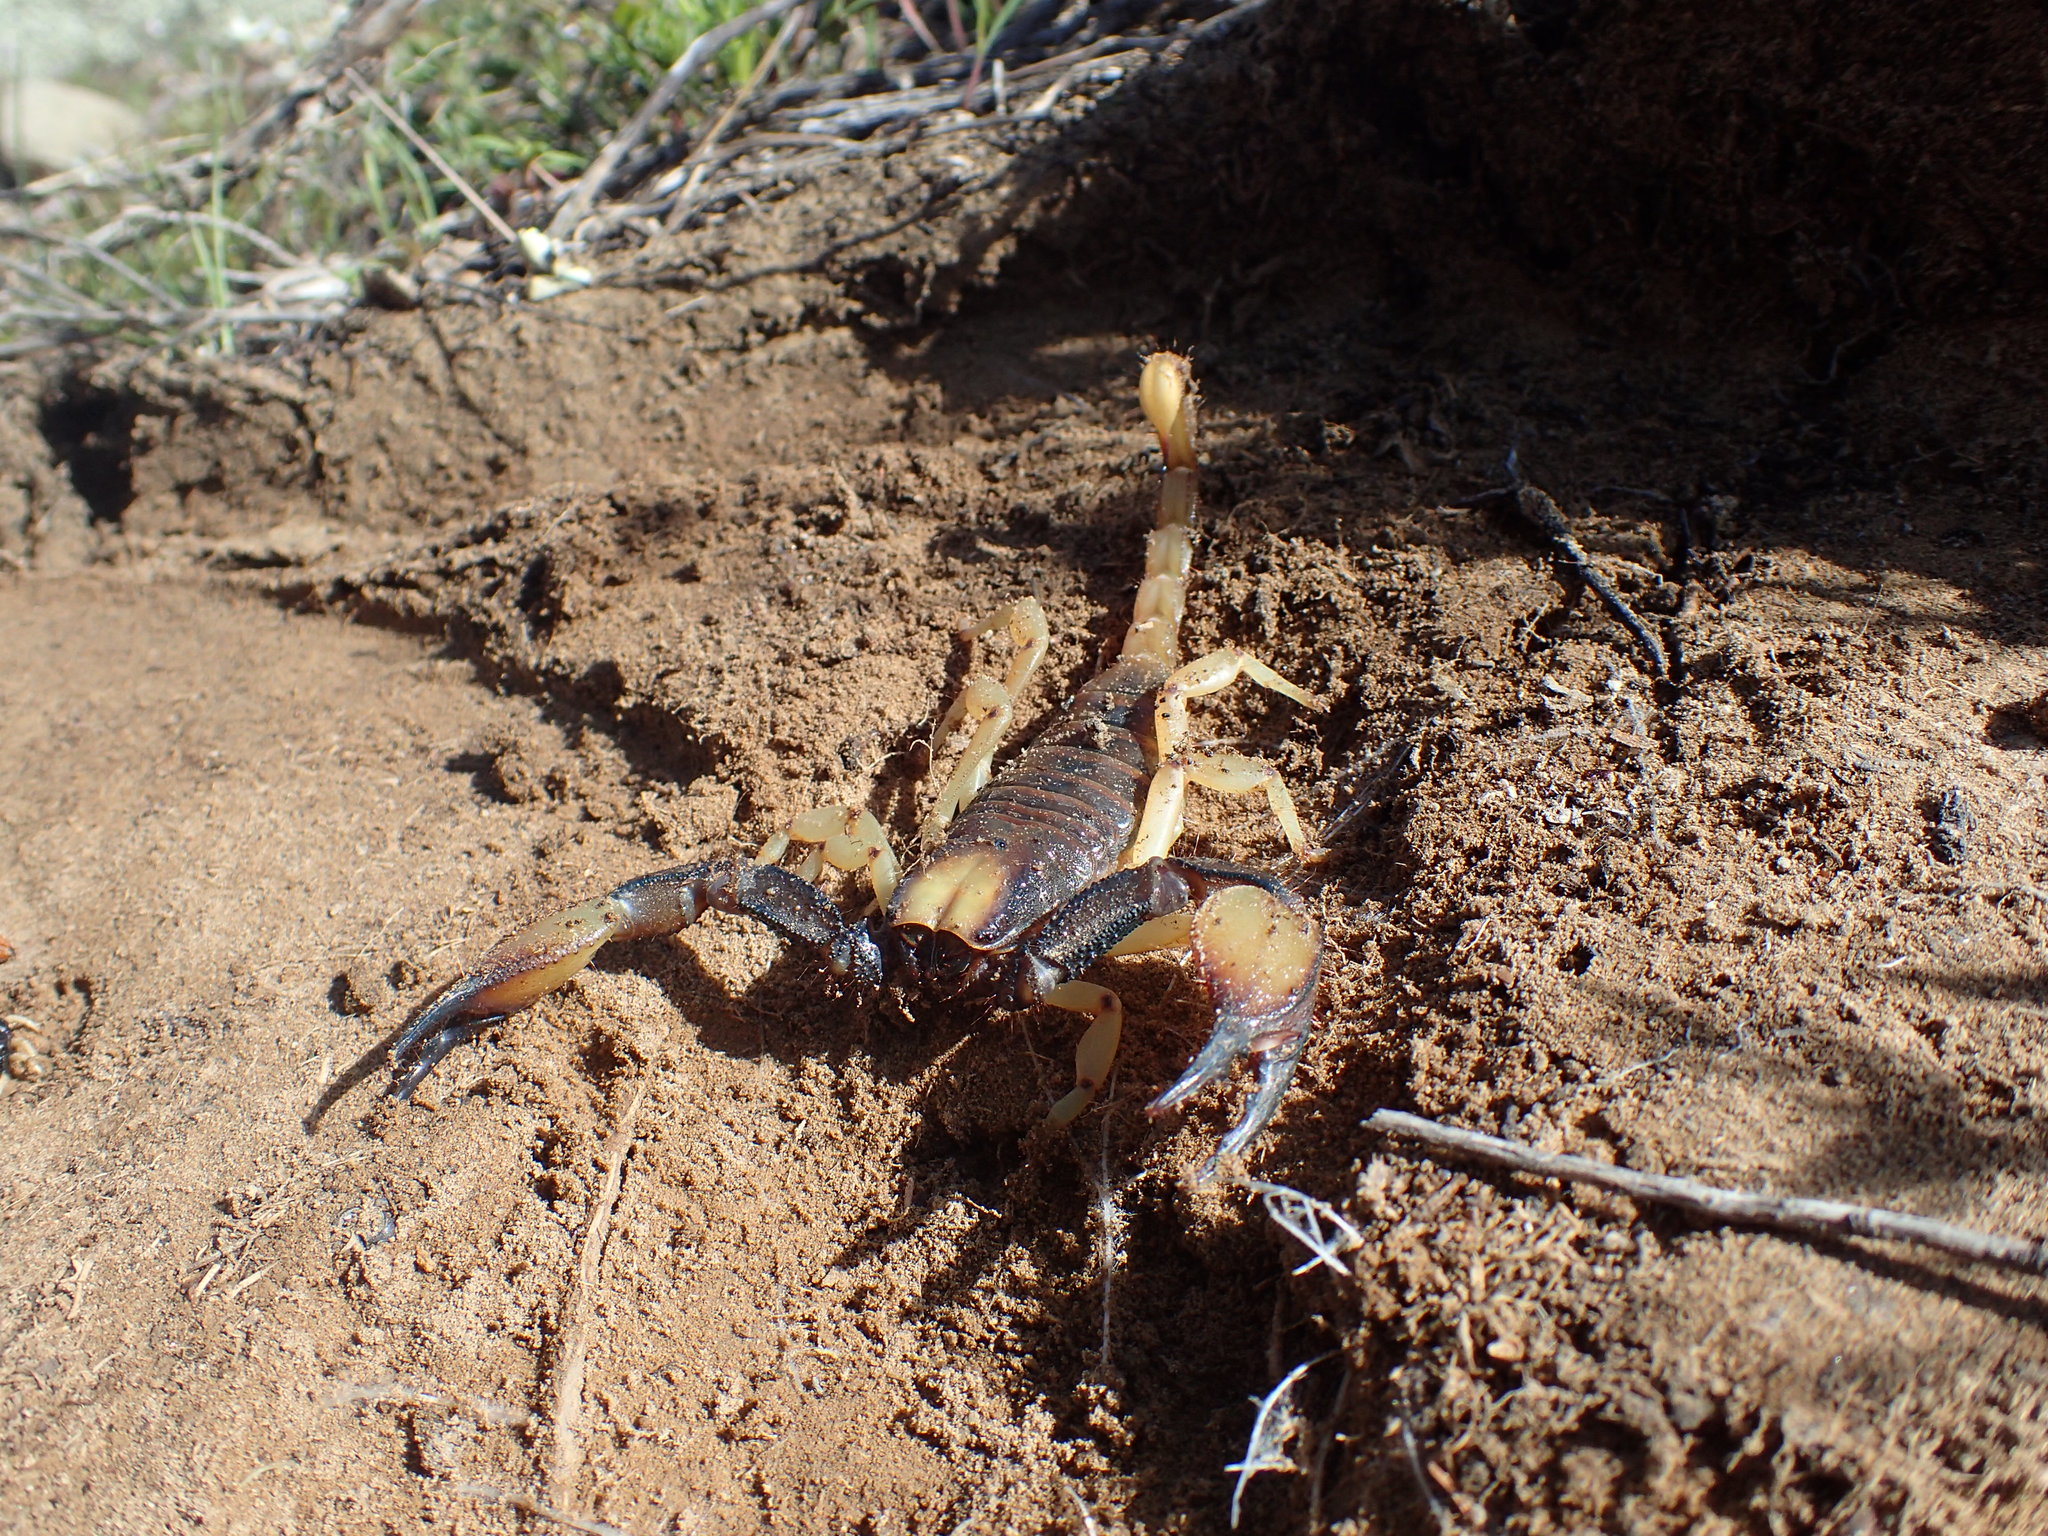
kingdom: Animalia
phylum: Arthropoda
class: Arachnida
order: Scorpiones
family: Scorpionidae
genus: Opistophthalmus
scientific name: Opistophthalmus karrooensis
